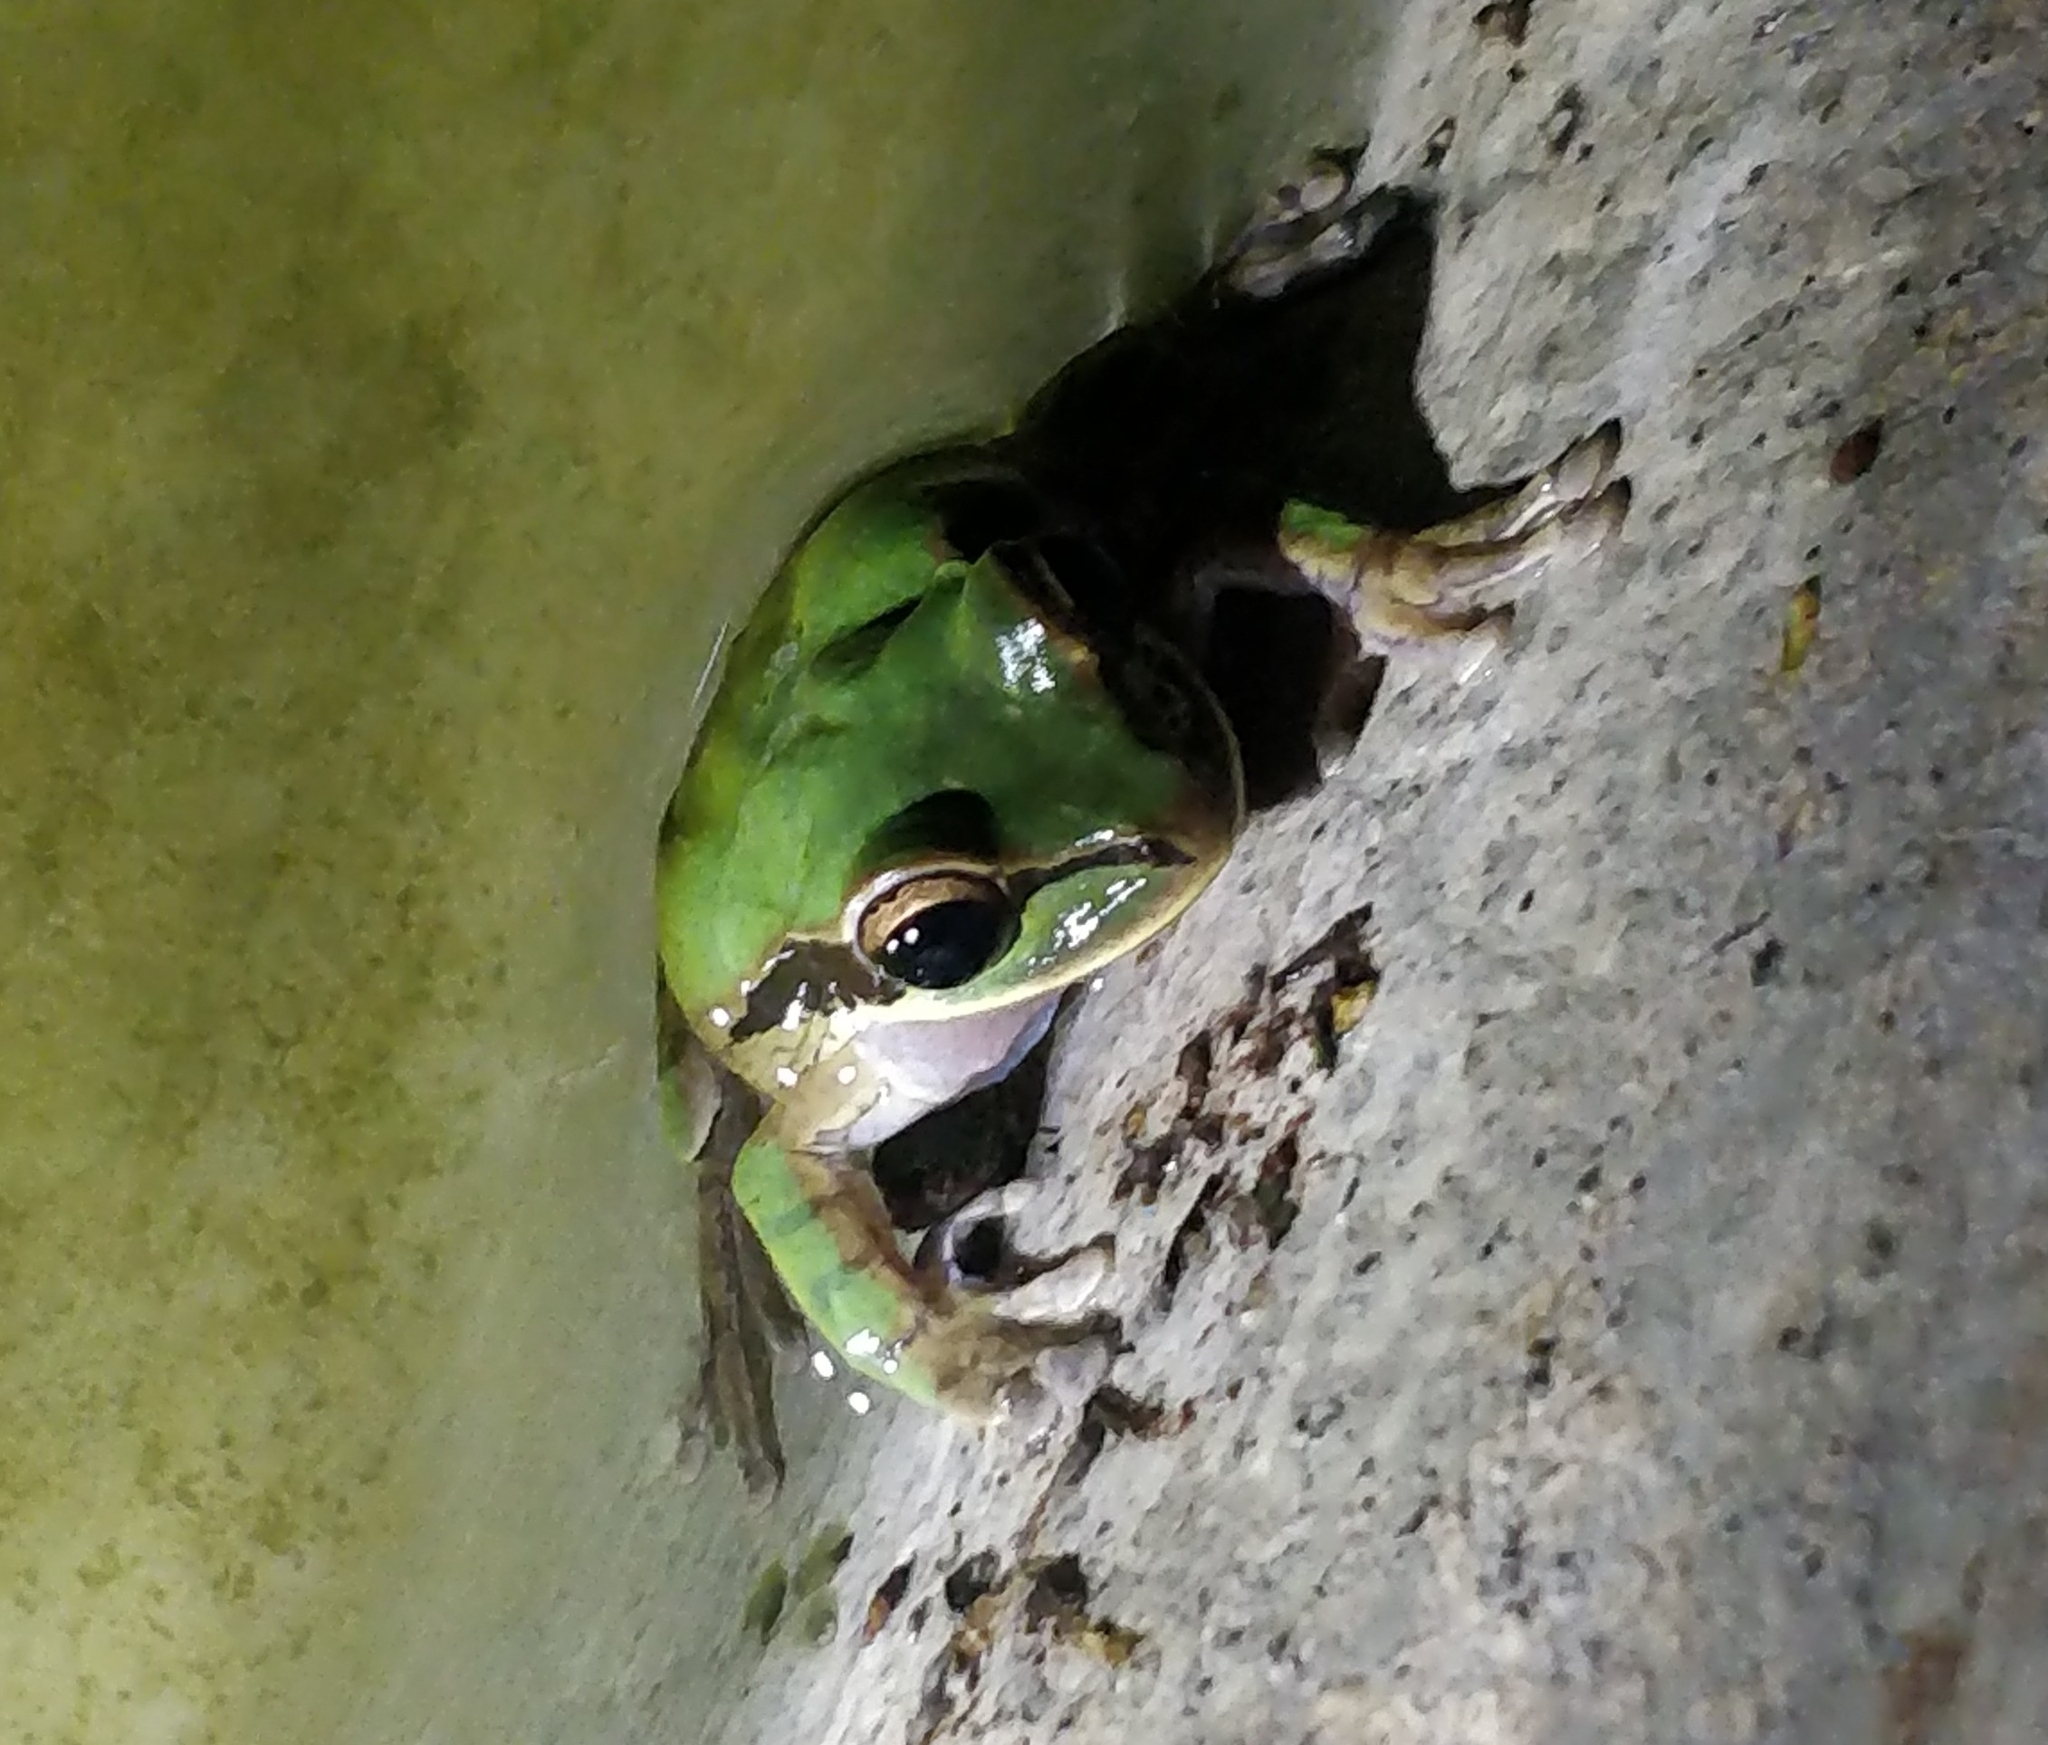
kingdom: Animalia
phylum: Chordata
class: Amphibia
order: Anura
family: Hylidae
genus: Smilisca
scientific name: Smilisca phaeota
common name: Central american smilisca
